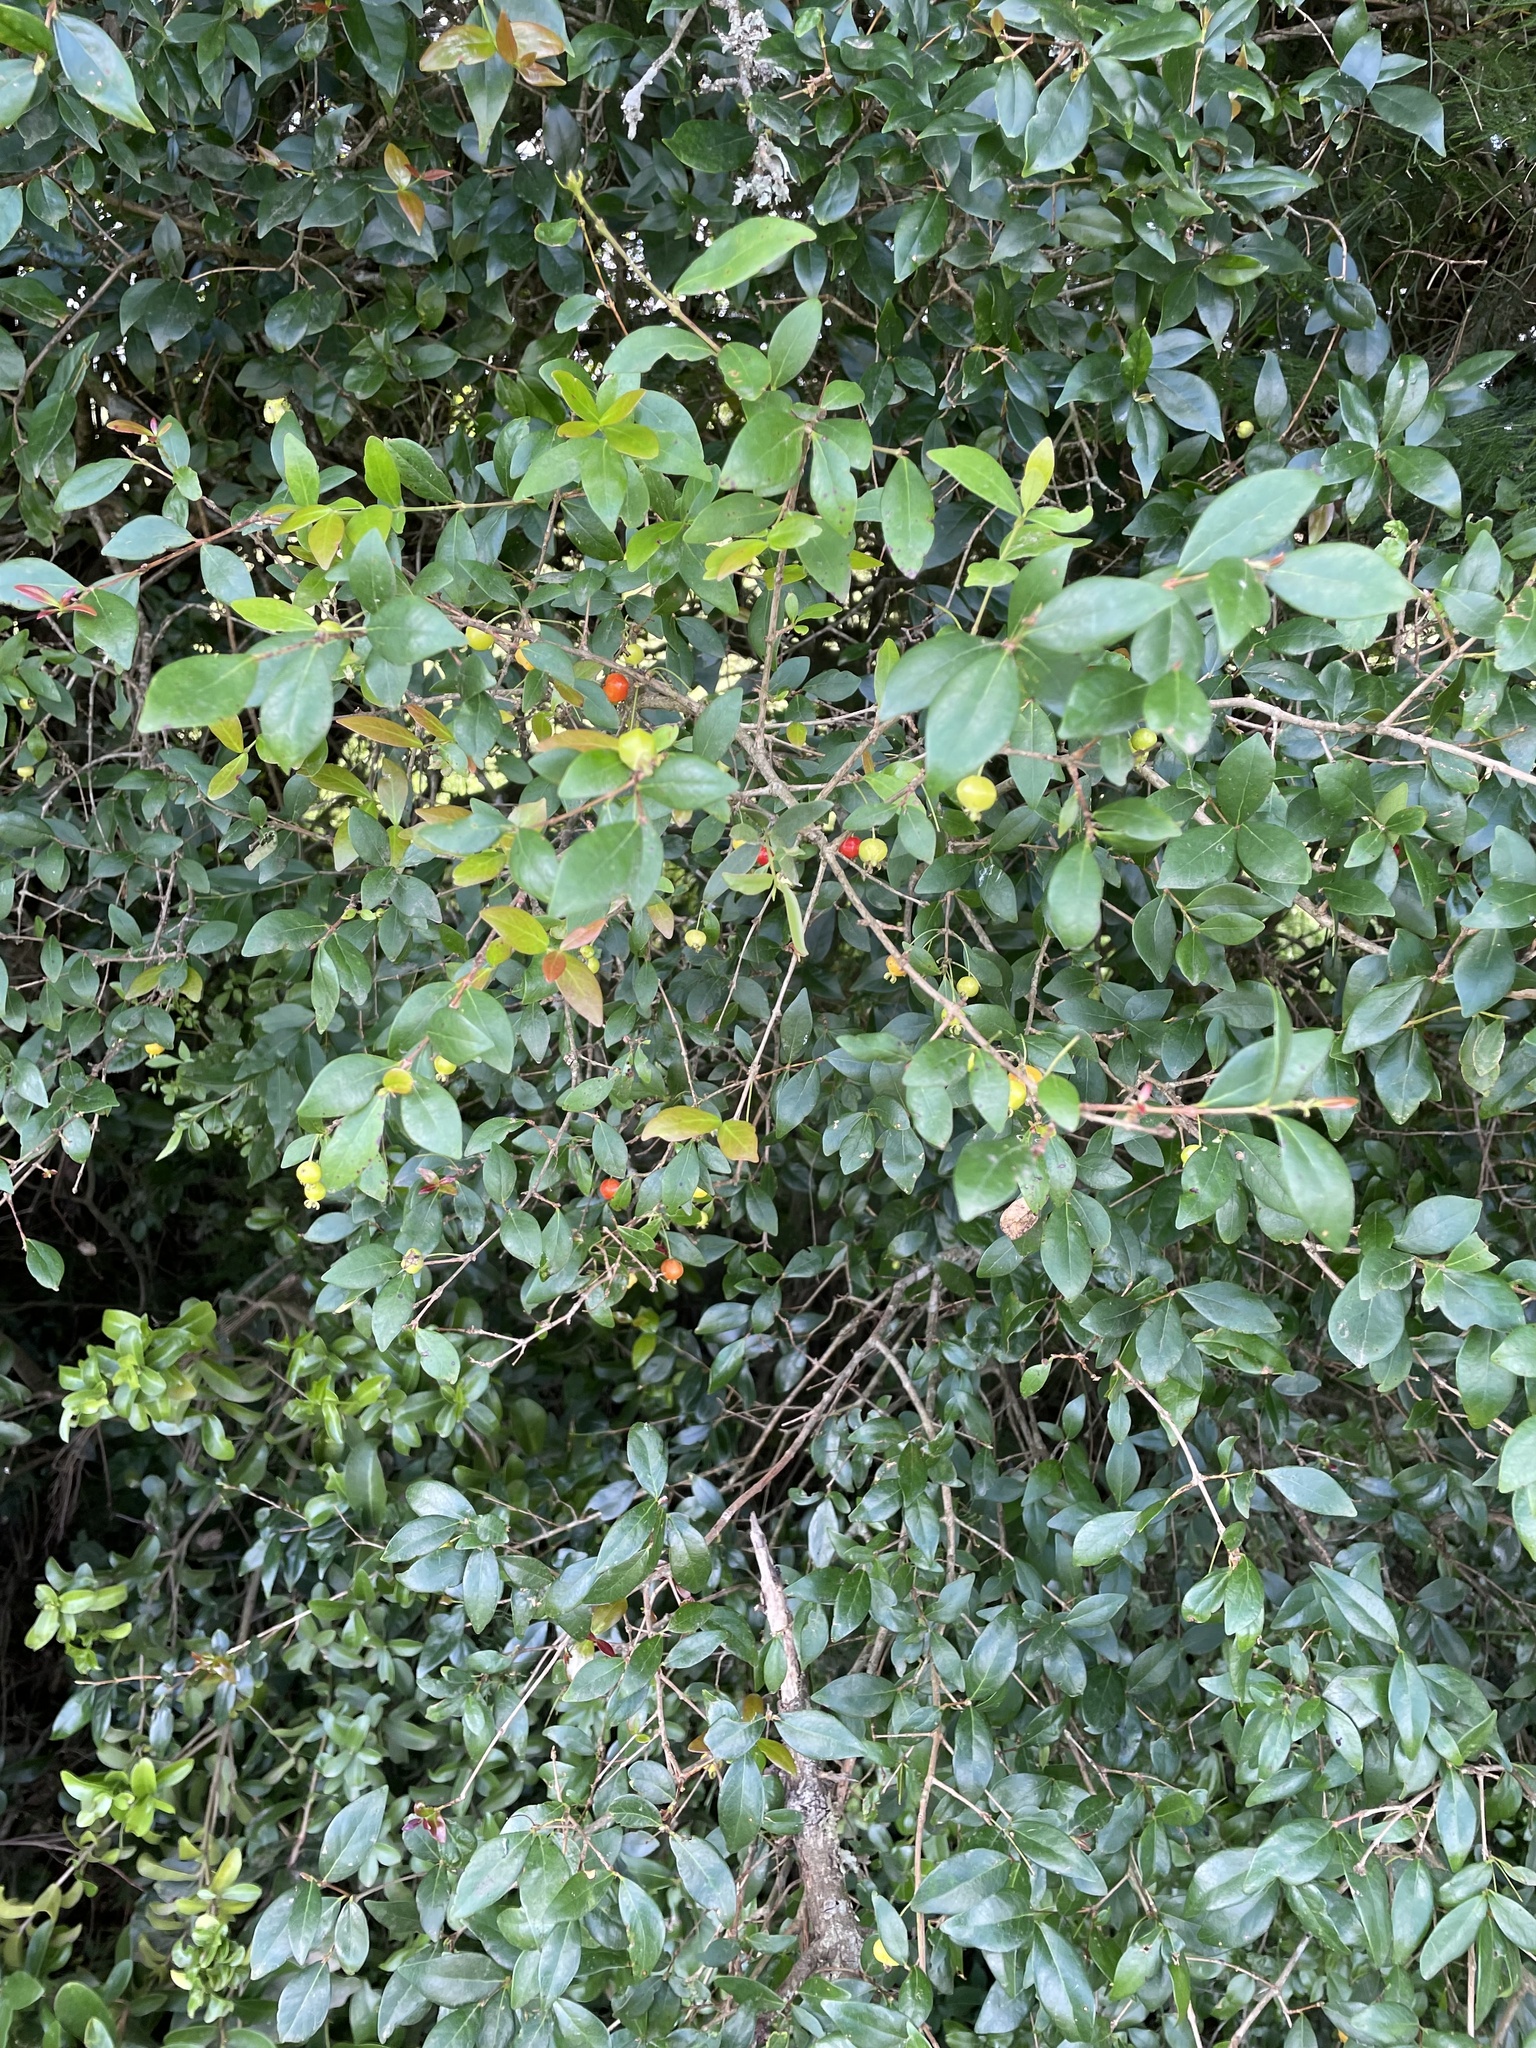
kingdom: Plantae
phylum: Tracheophyta
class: Magnoliopsida
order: Myrtales
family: Myrtaceae
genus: Eugenia
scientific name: Eugenia uniflora
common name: Surinam cherry
